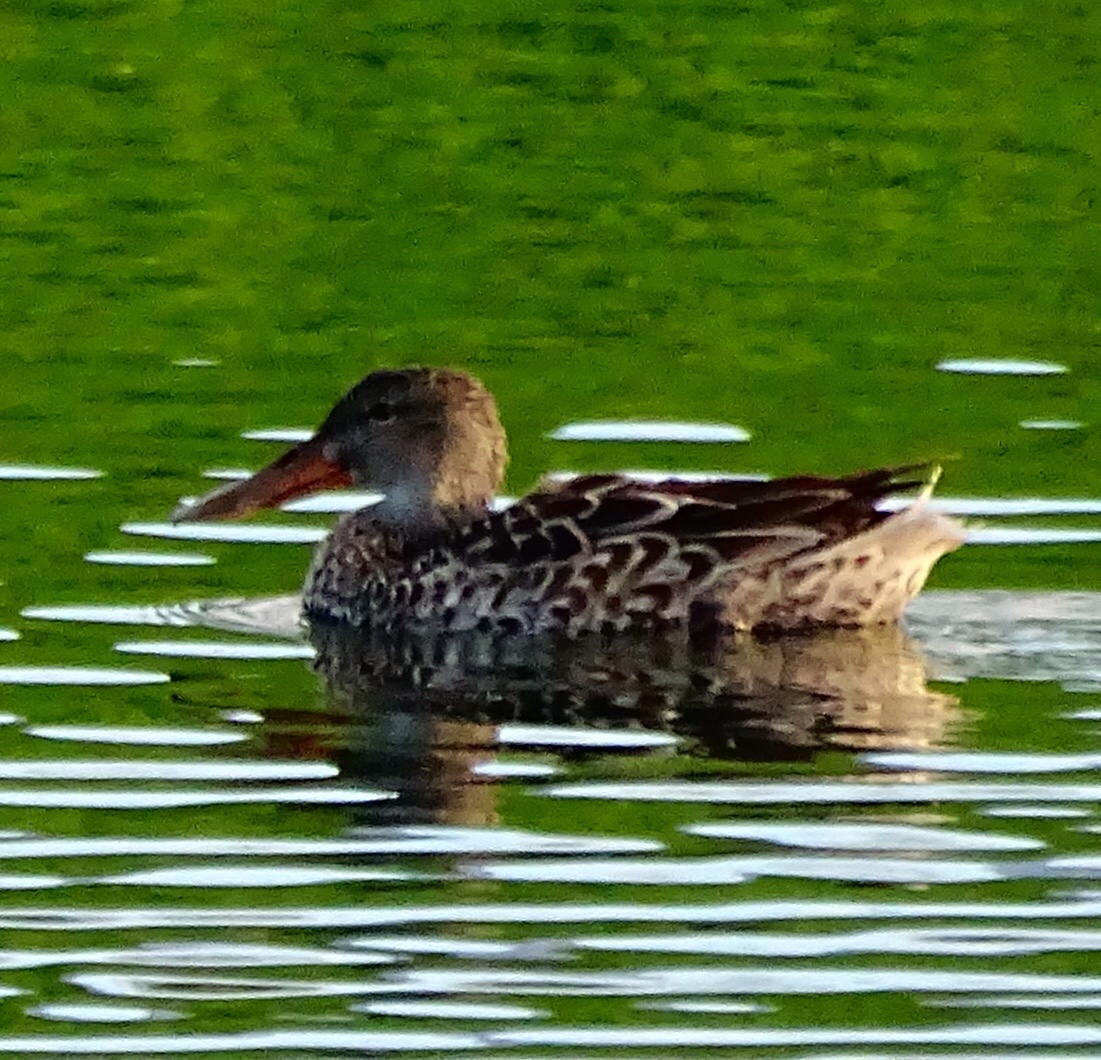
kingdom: Animalia
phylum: Chordata
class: Aves
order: Anseriformes
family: Anatidae
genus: Spatula
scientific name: Spatula clypeata
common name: Northern shoveler
